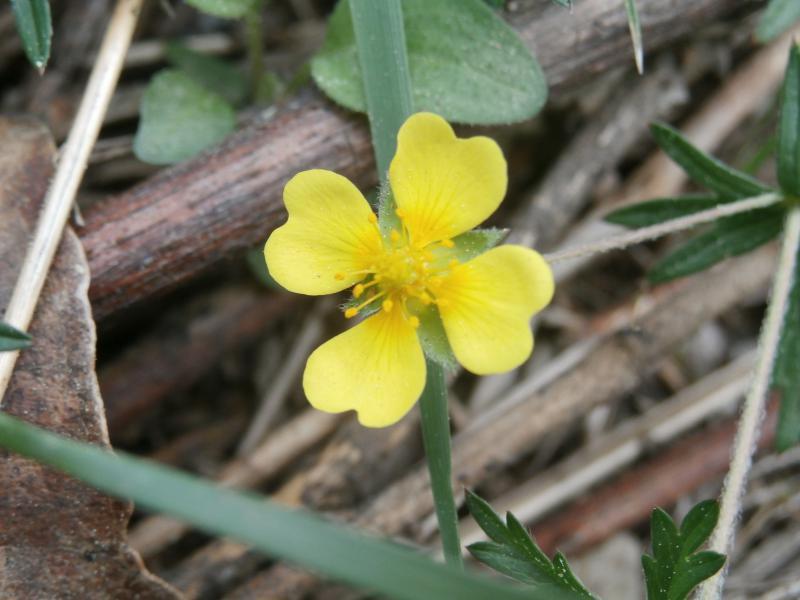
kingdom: Plantae
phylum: Tracheophyta
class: Magnoliopsida
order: Rosales
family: Rosaceae
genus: Potentilla
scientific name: Potentilla erecta
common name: Tormentil
